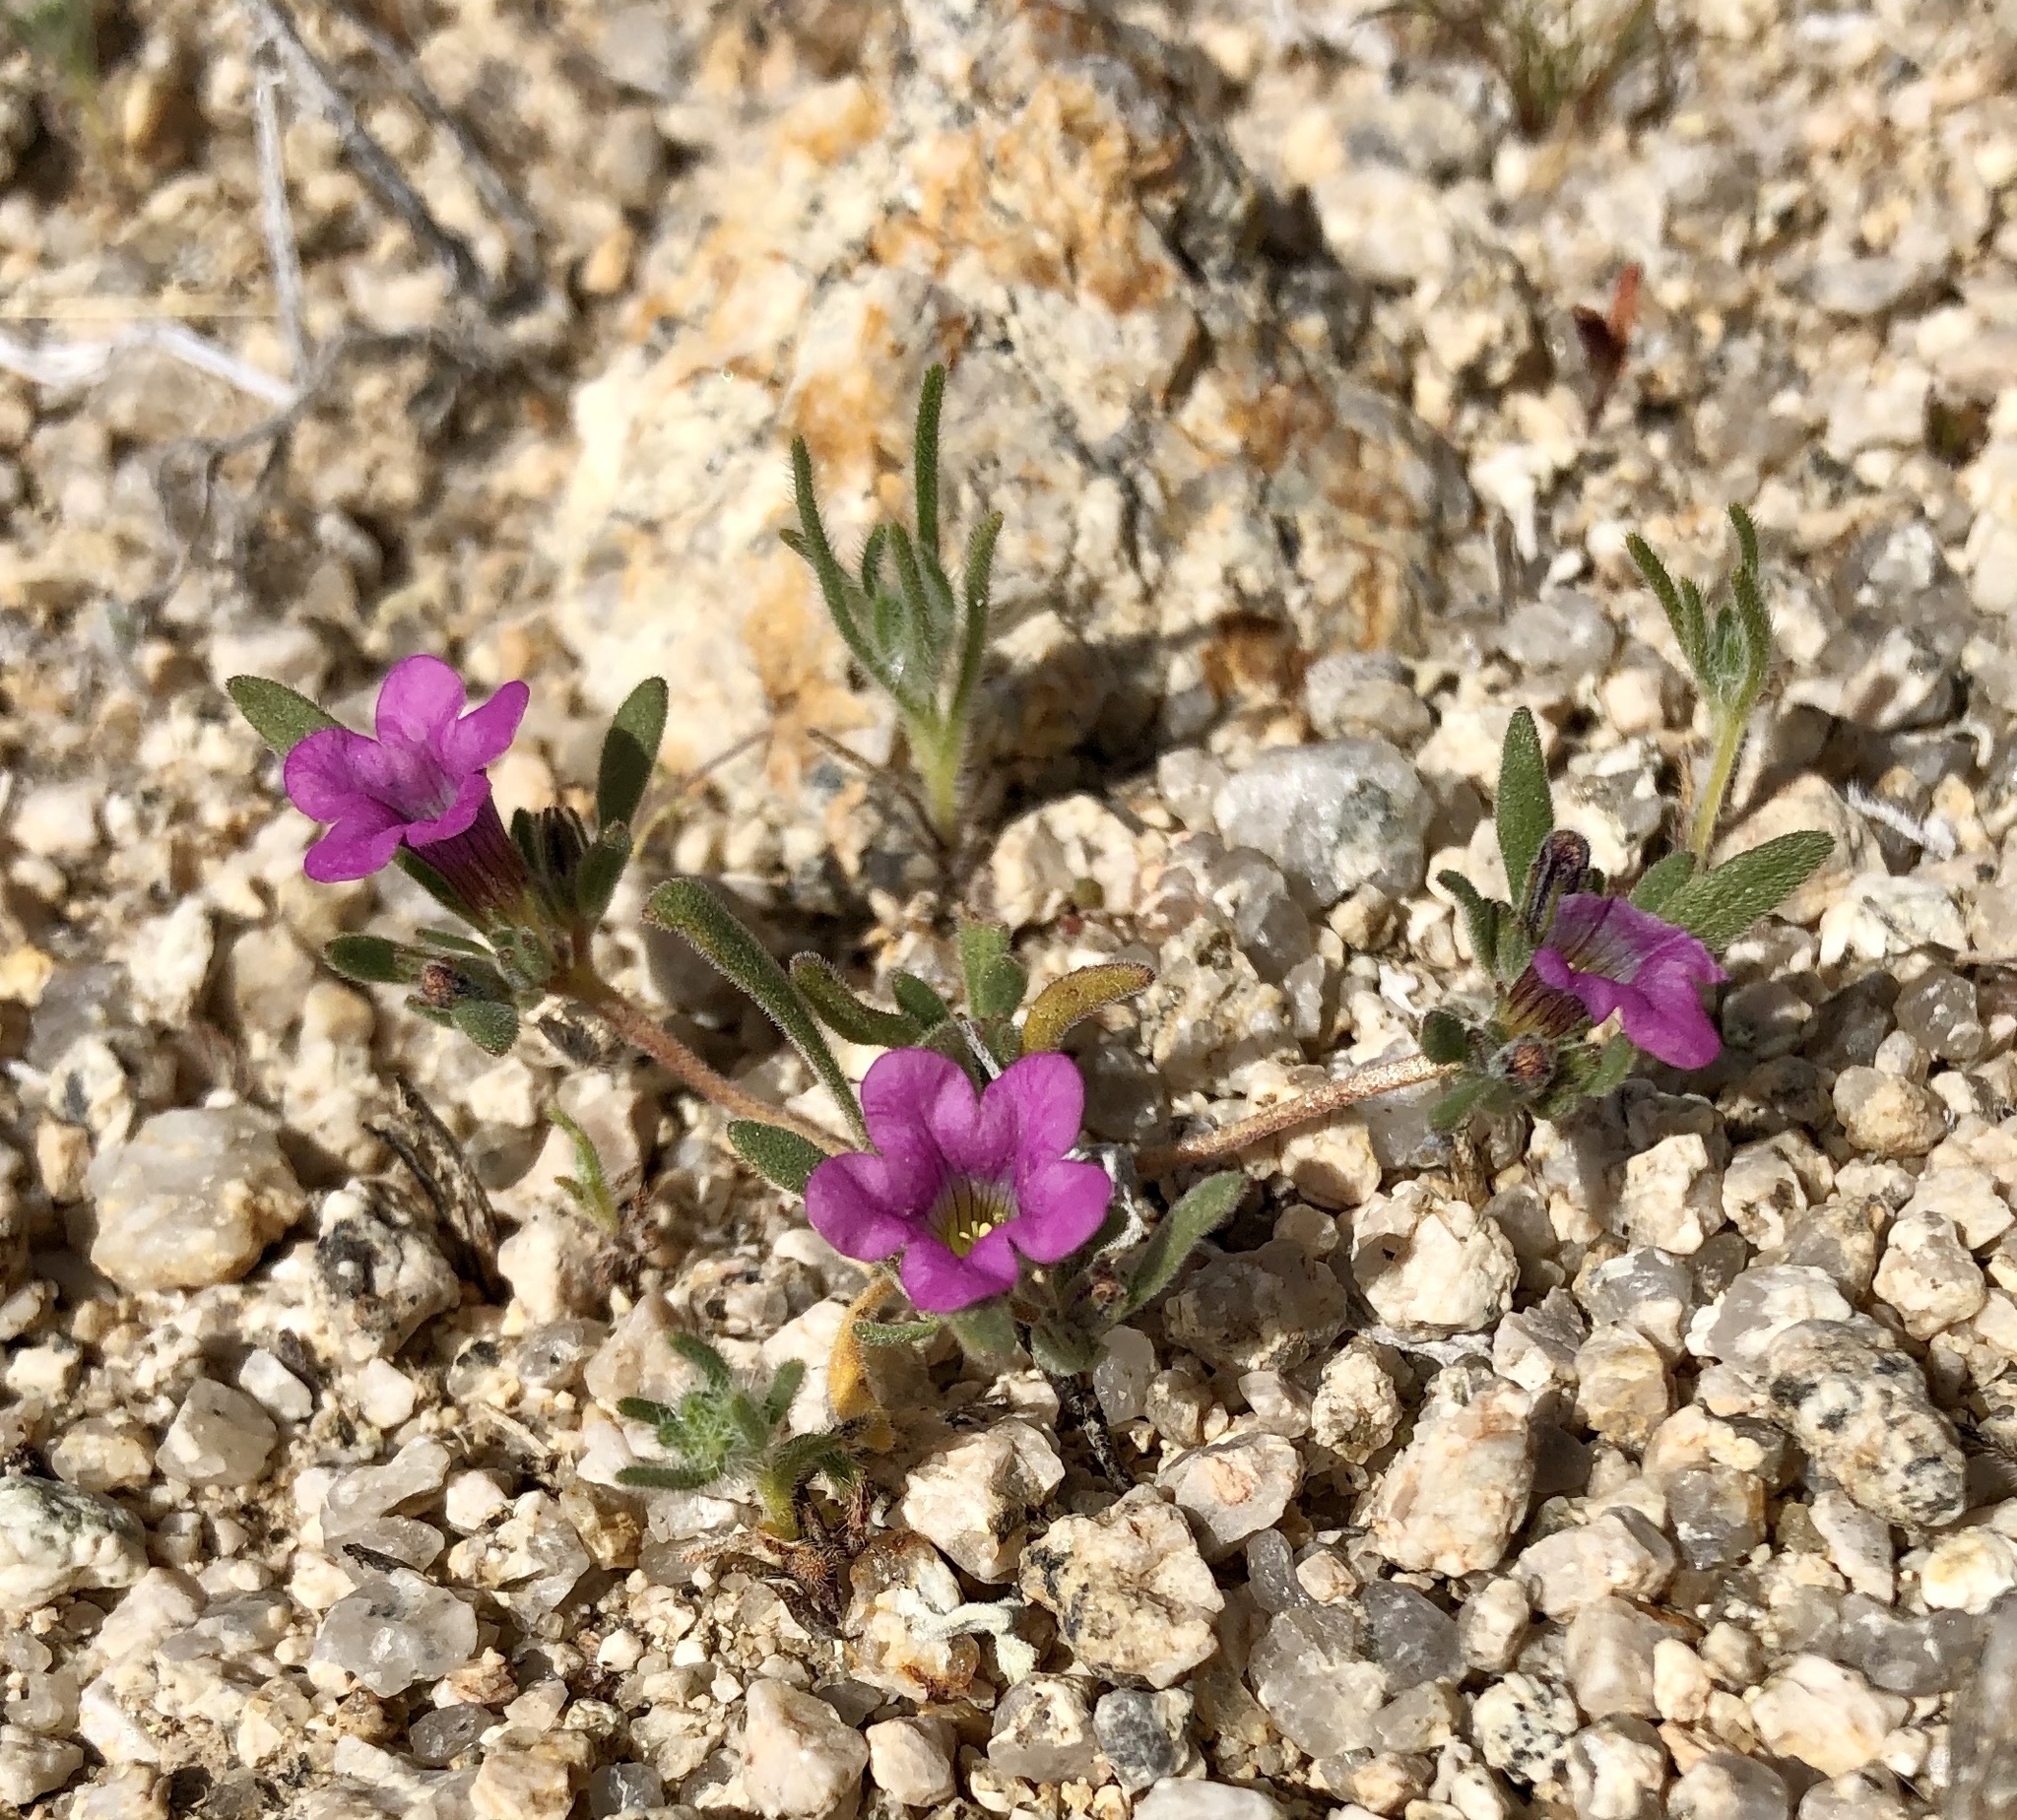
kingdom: Plantae
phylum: Tracheophyta
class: Magnoliopsida
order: Boraginales
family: Namaceae
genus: Nama
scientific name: Nama demissa
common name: Leafy nama
